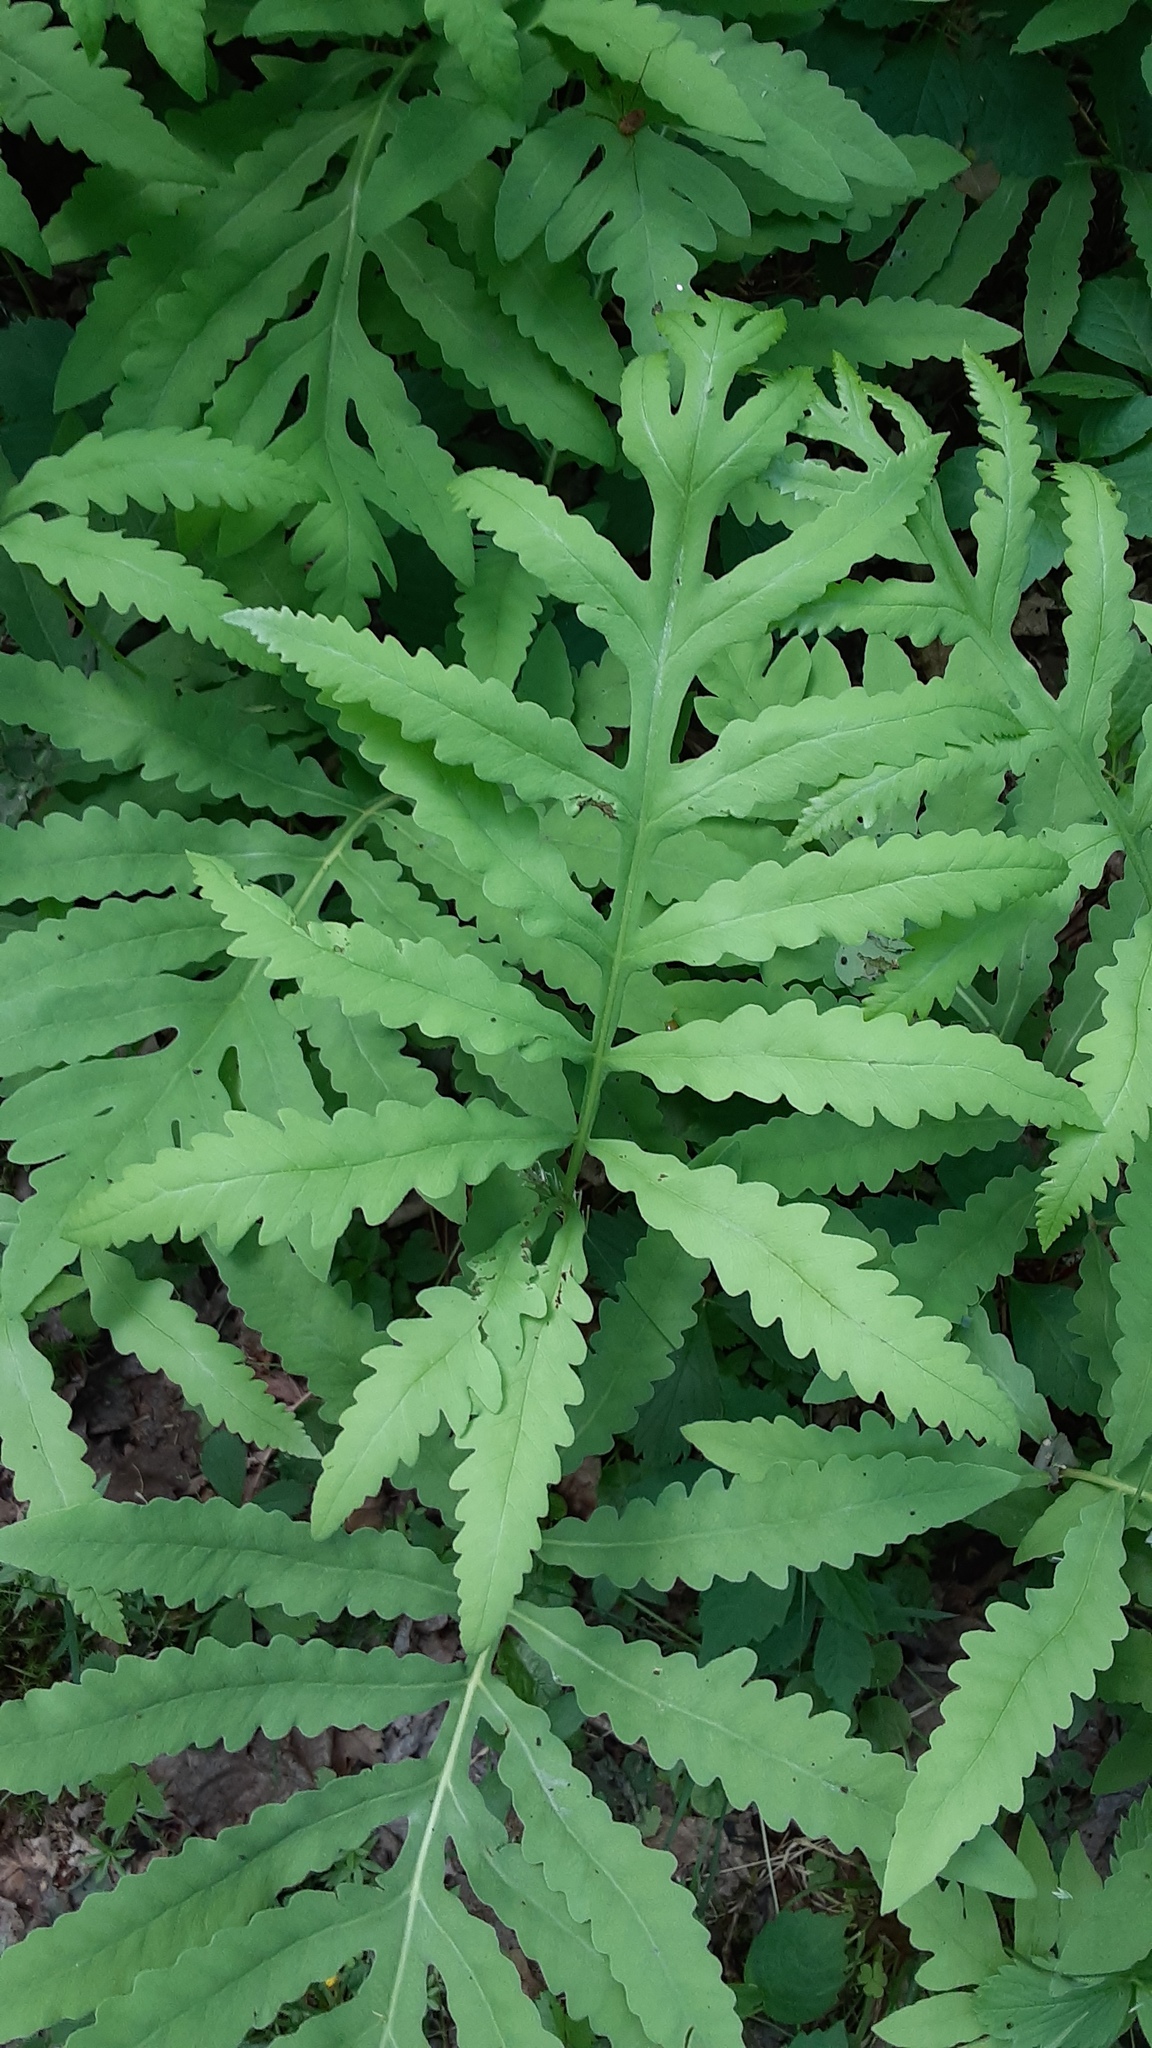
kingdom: Plantae
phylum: Tracheophyta
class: Polypodiopsida
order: Polypodiales
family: Onocleaceae
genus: Onoclea
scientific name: Onoclea sensibilis
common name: Sensitive fern
